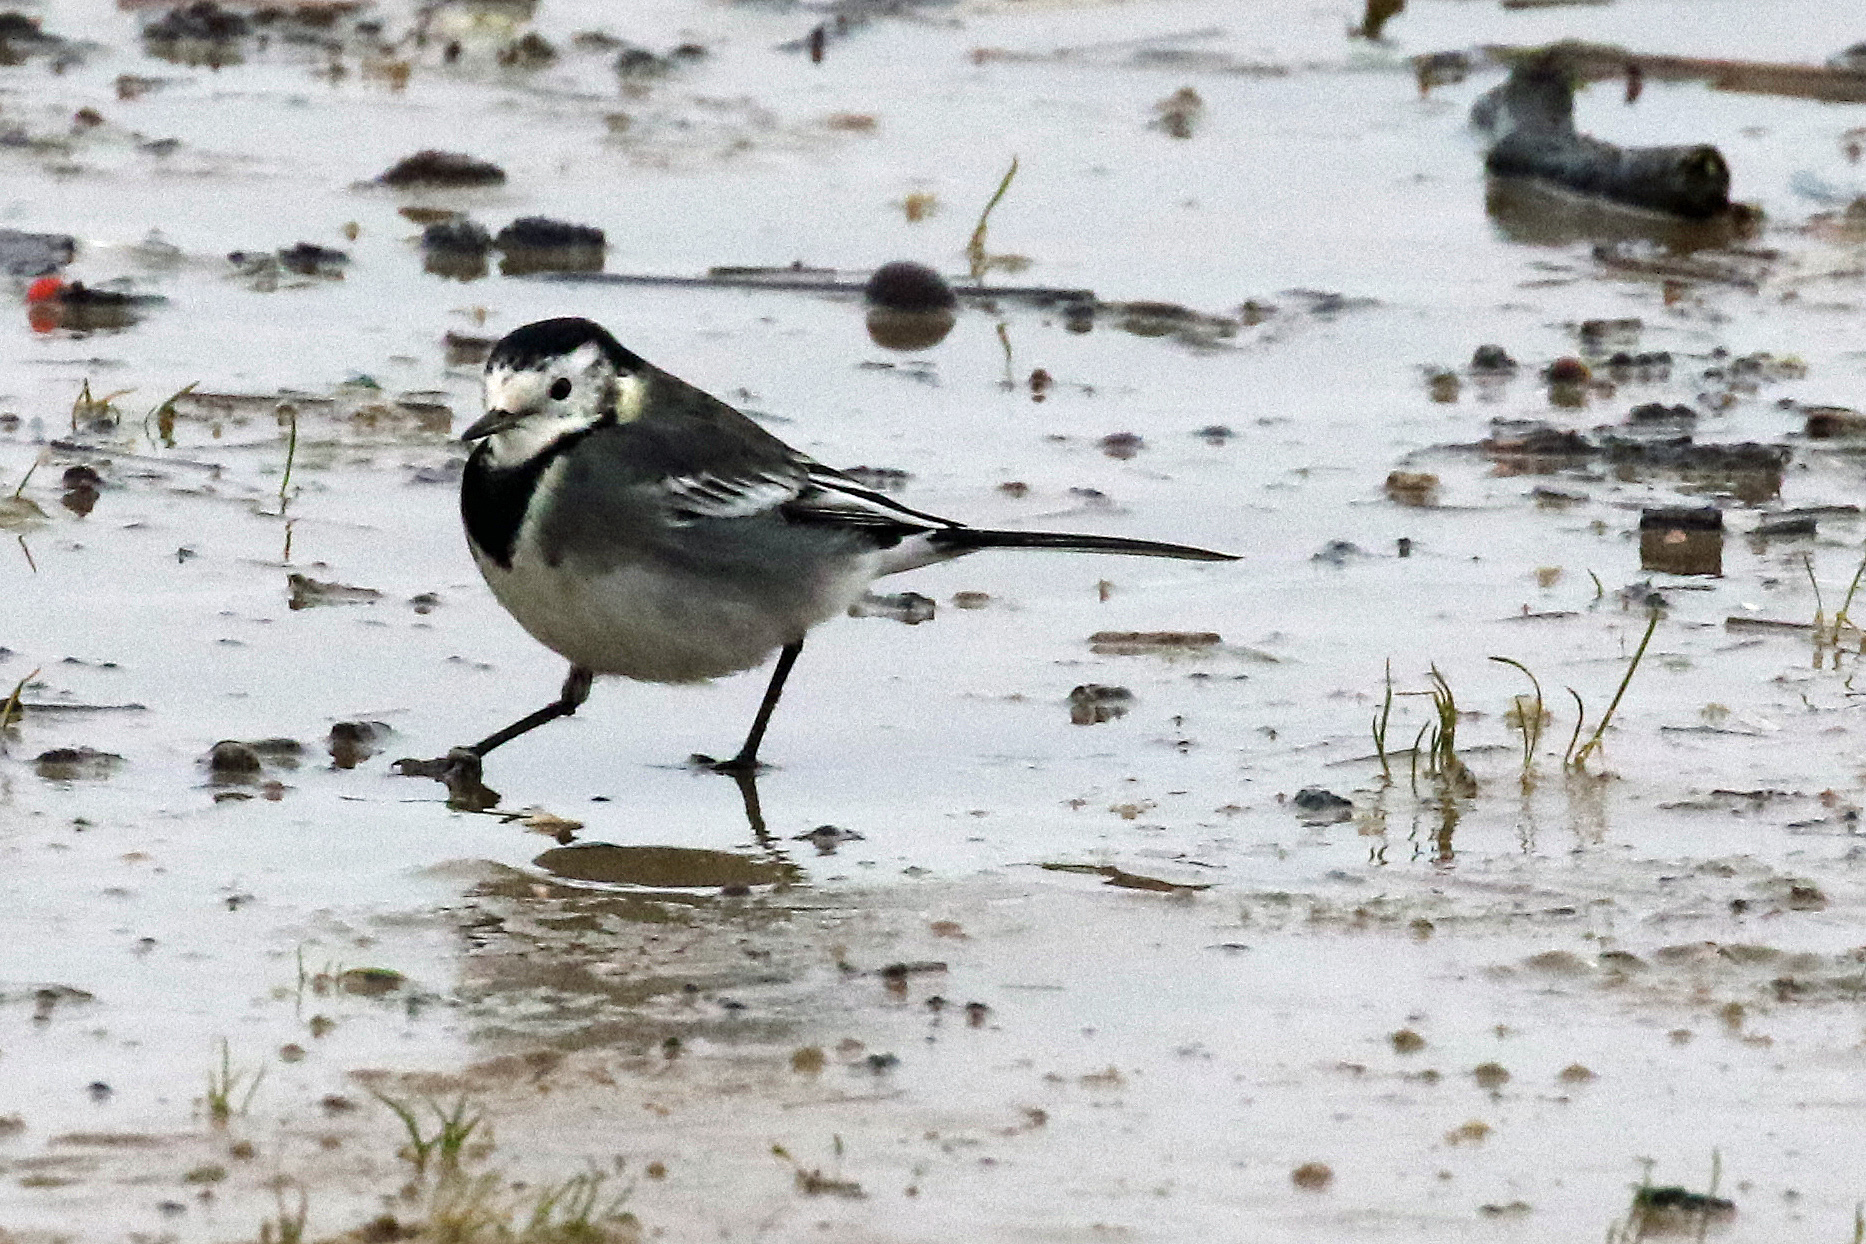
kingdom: Animalia
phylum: Chordata
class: Aves
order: Passeriformes
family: Motacillidae
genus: Motacilla
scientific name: Motacilla alba
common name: White wagtail
